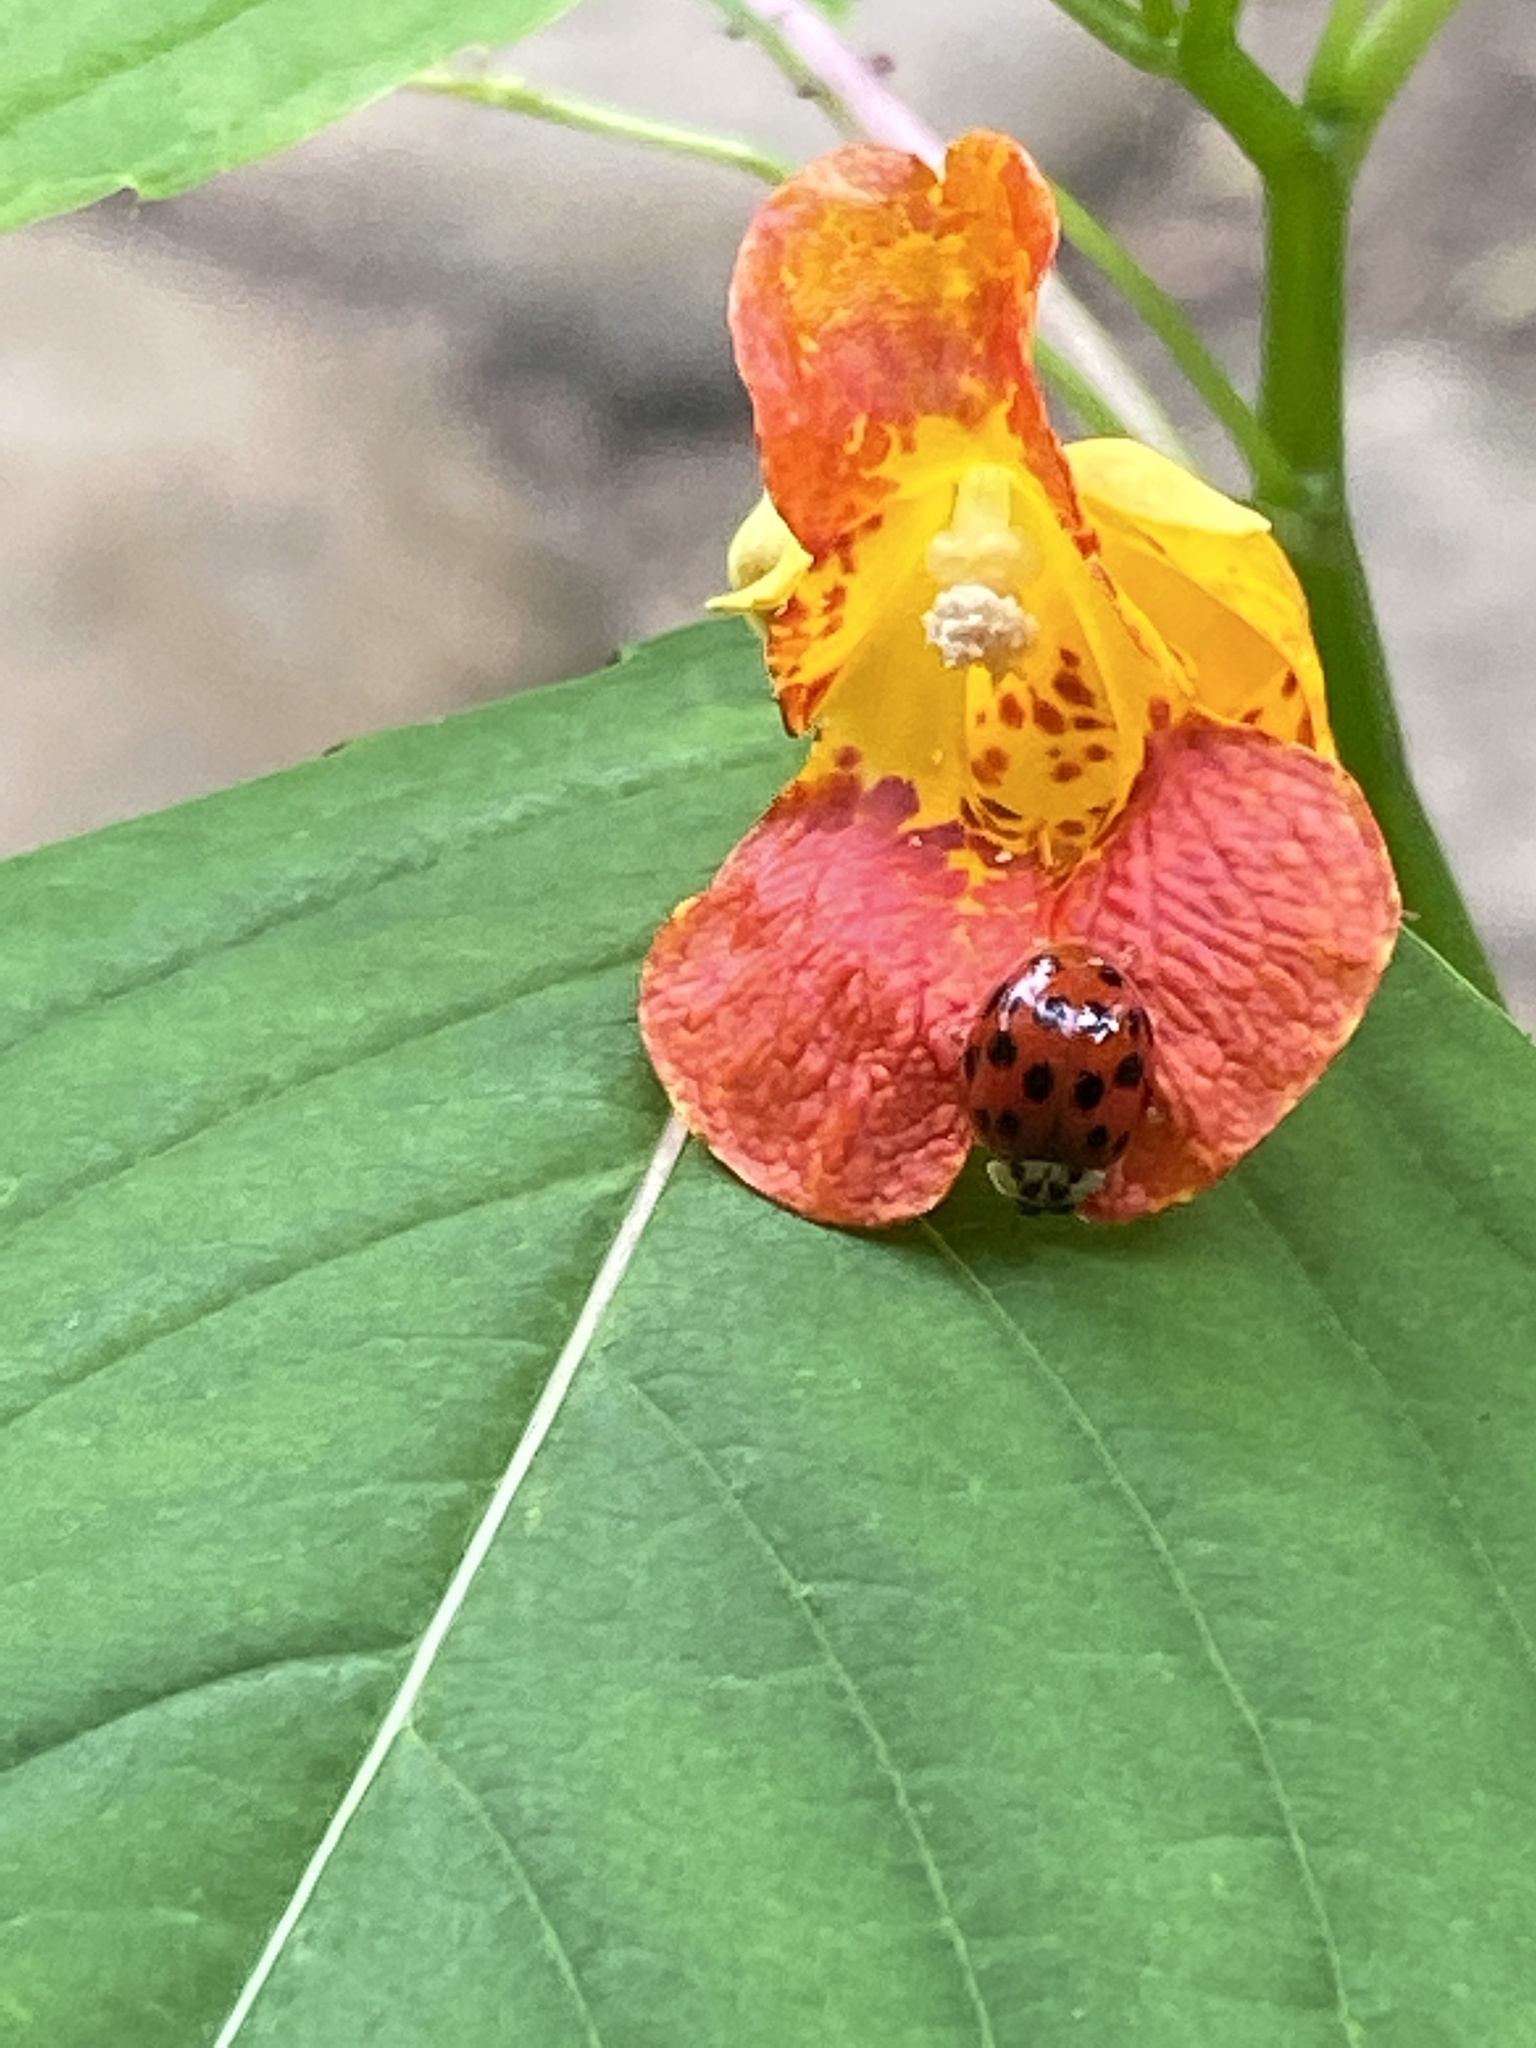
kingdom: Animalia
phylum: Arthropoda
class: Insecta
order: Coleoptera
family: Coccinellidae
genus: Harmonia
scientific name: Harmonia axyridis
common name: Harlequin ladybird
